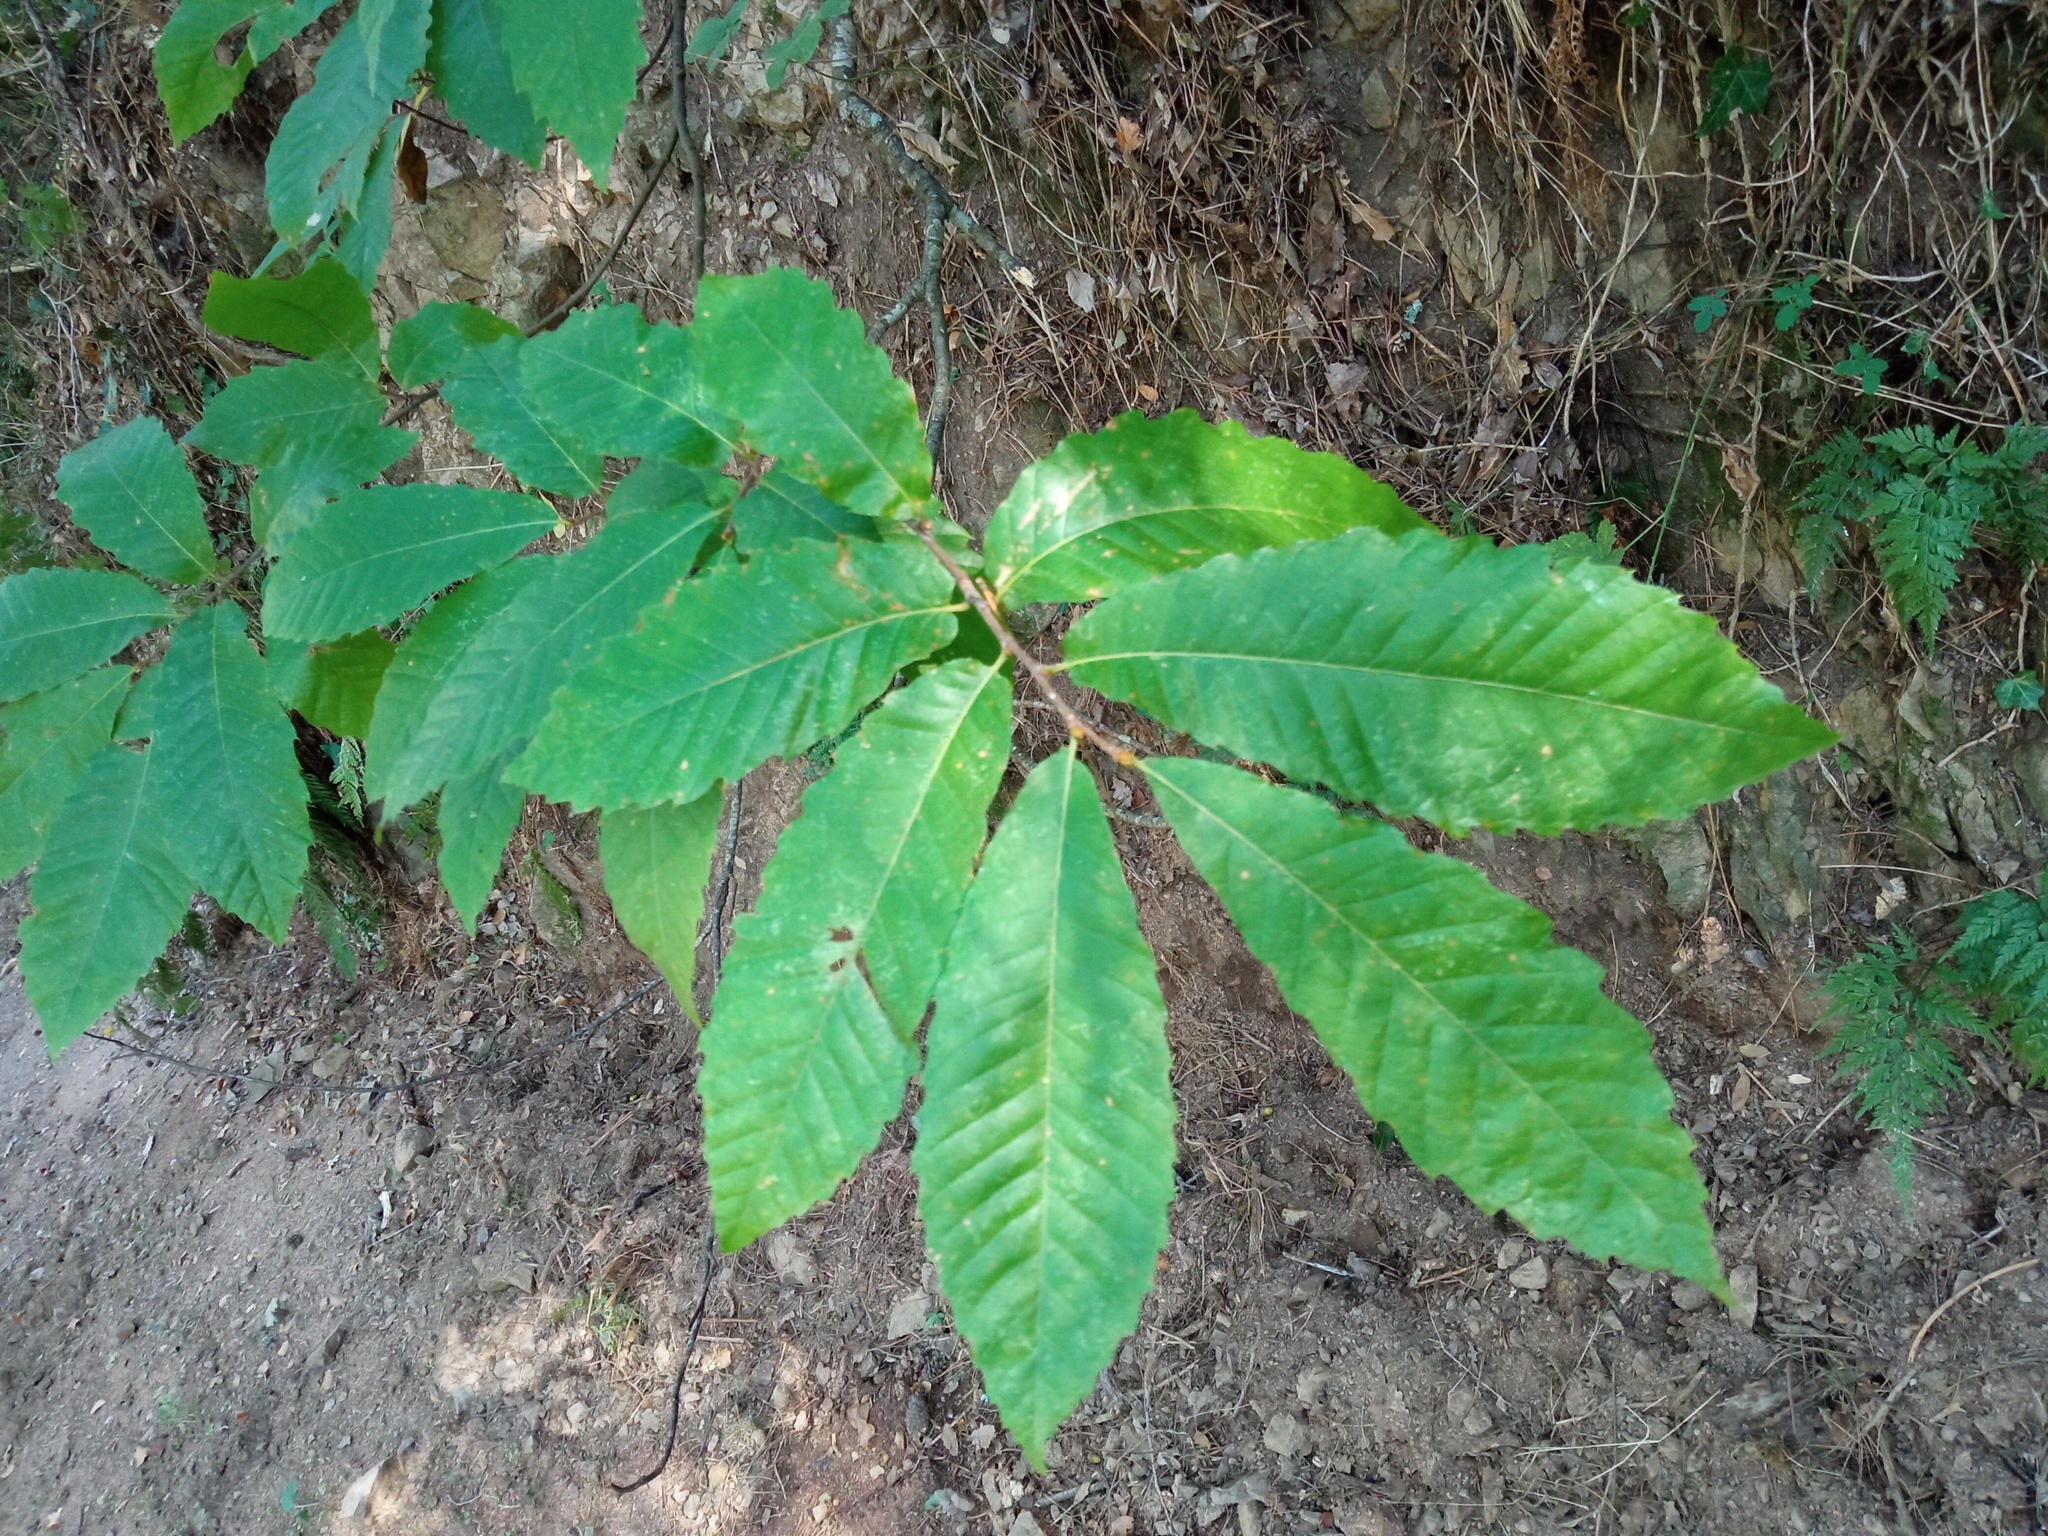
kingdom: Plantae
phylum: Tracheophyta
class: Magnoliopsida
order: Fagales
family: Fagaceae
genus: Castanea
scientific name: Castanea sativa
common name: Sweet chestnut
